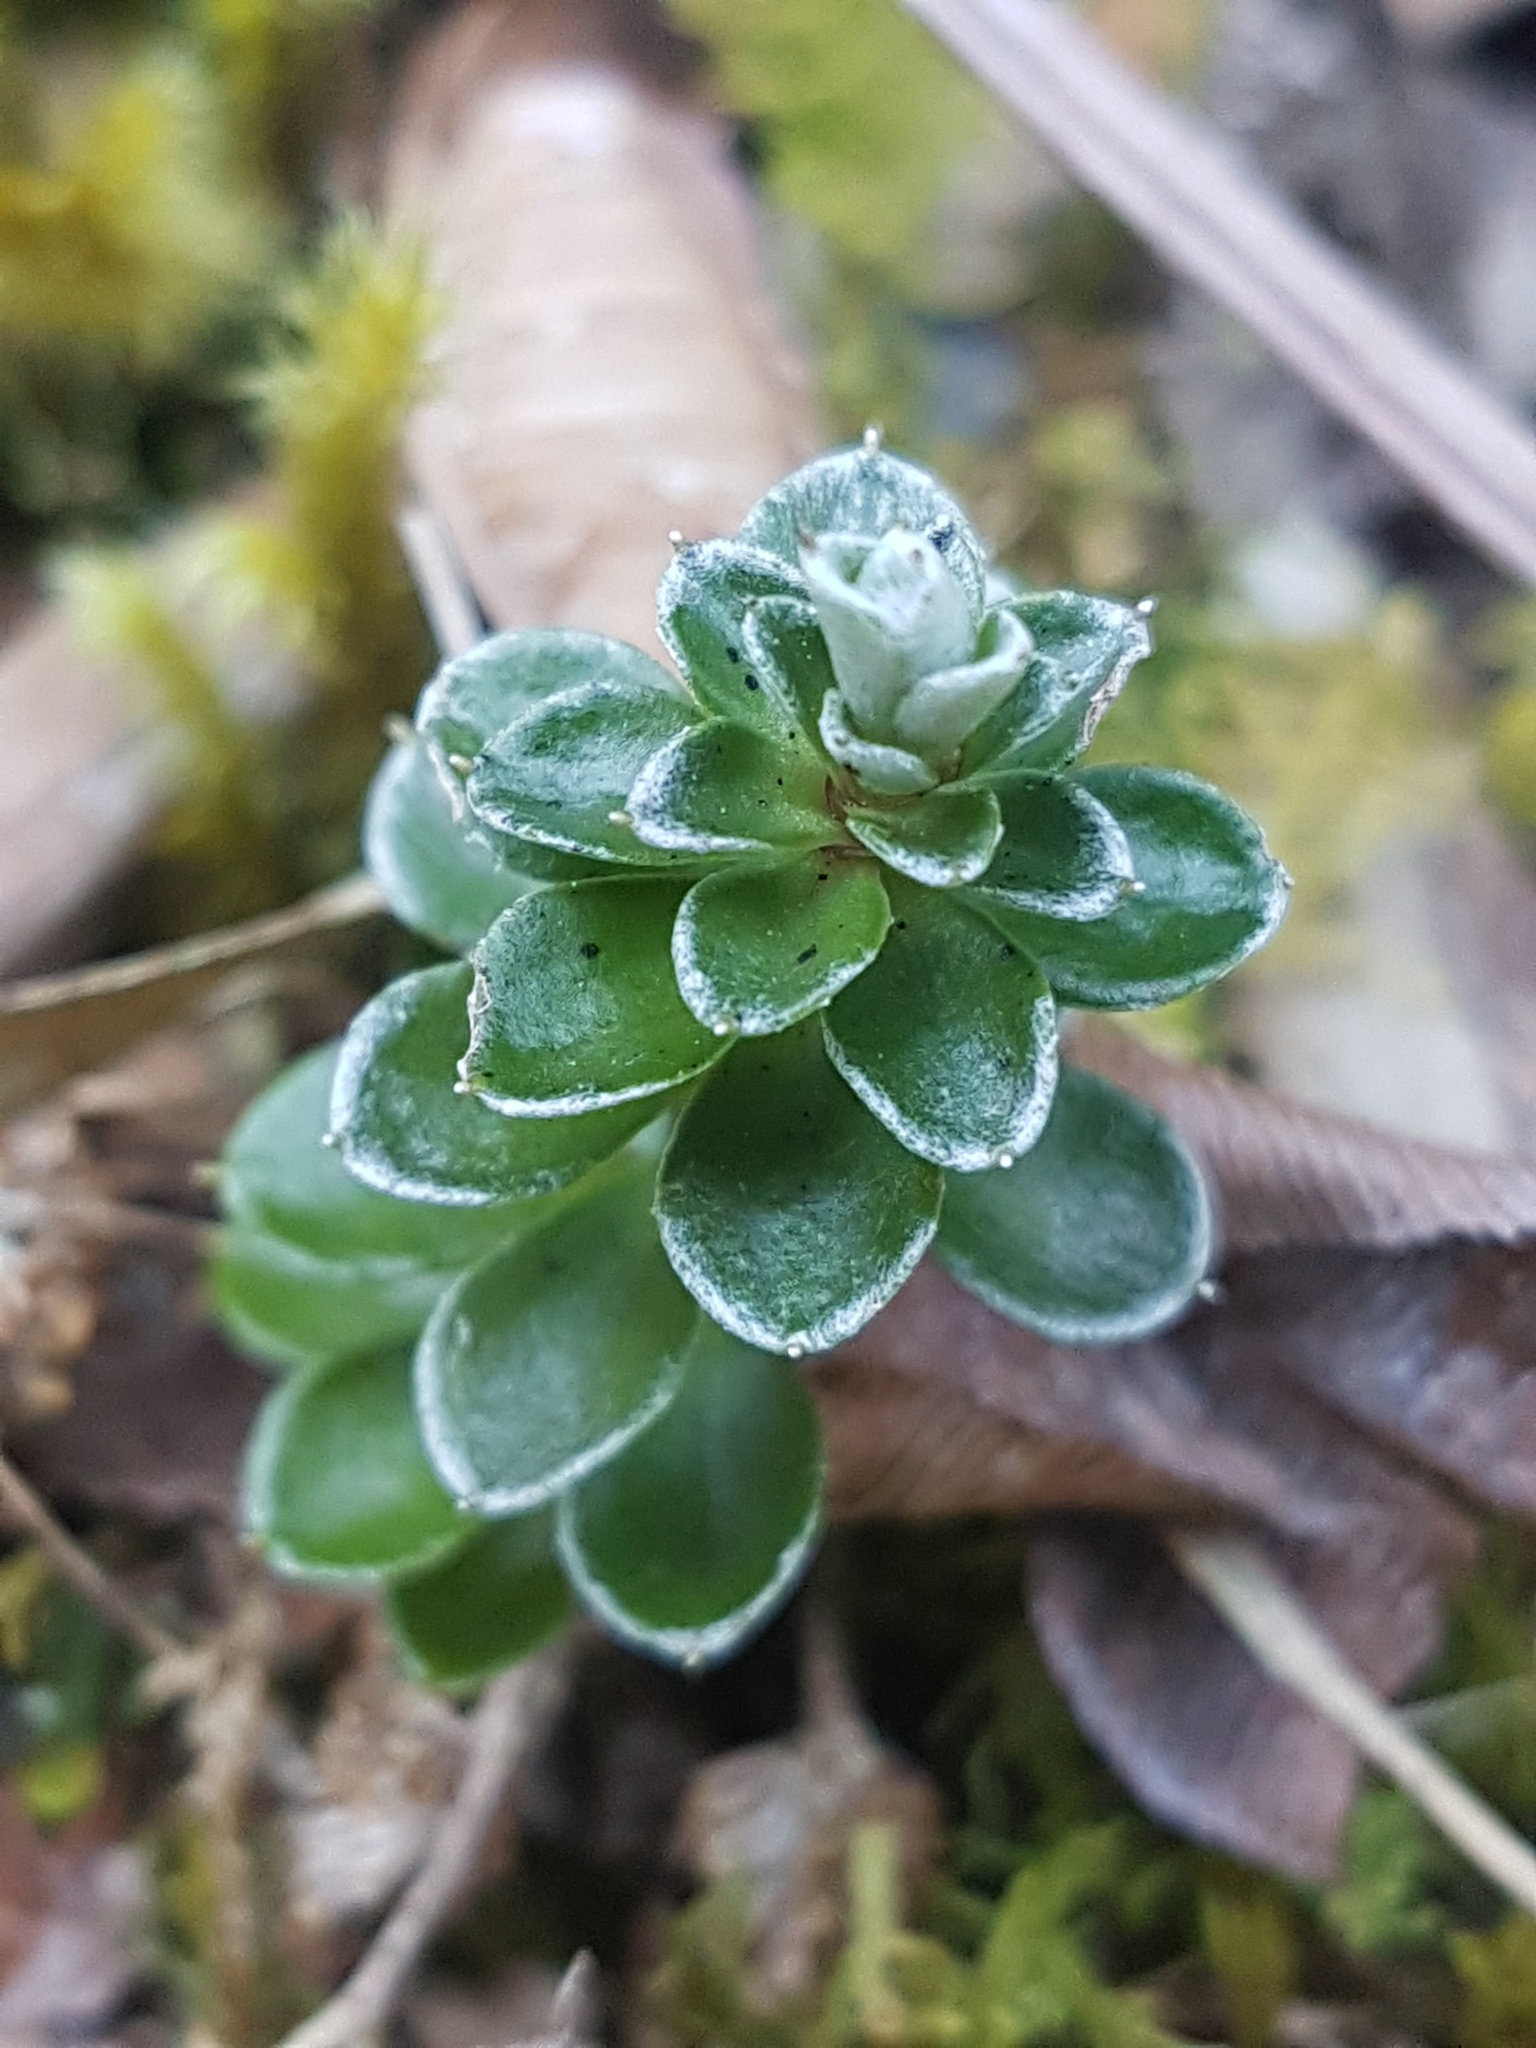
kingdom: Plantae
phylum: Tracheophyta
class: Magnoliopsida
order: Asterales
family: Asteraceae
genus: Anaphalioides
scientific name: Anaphalioides alpina
